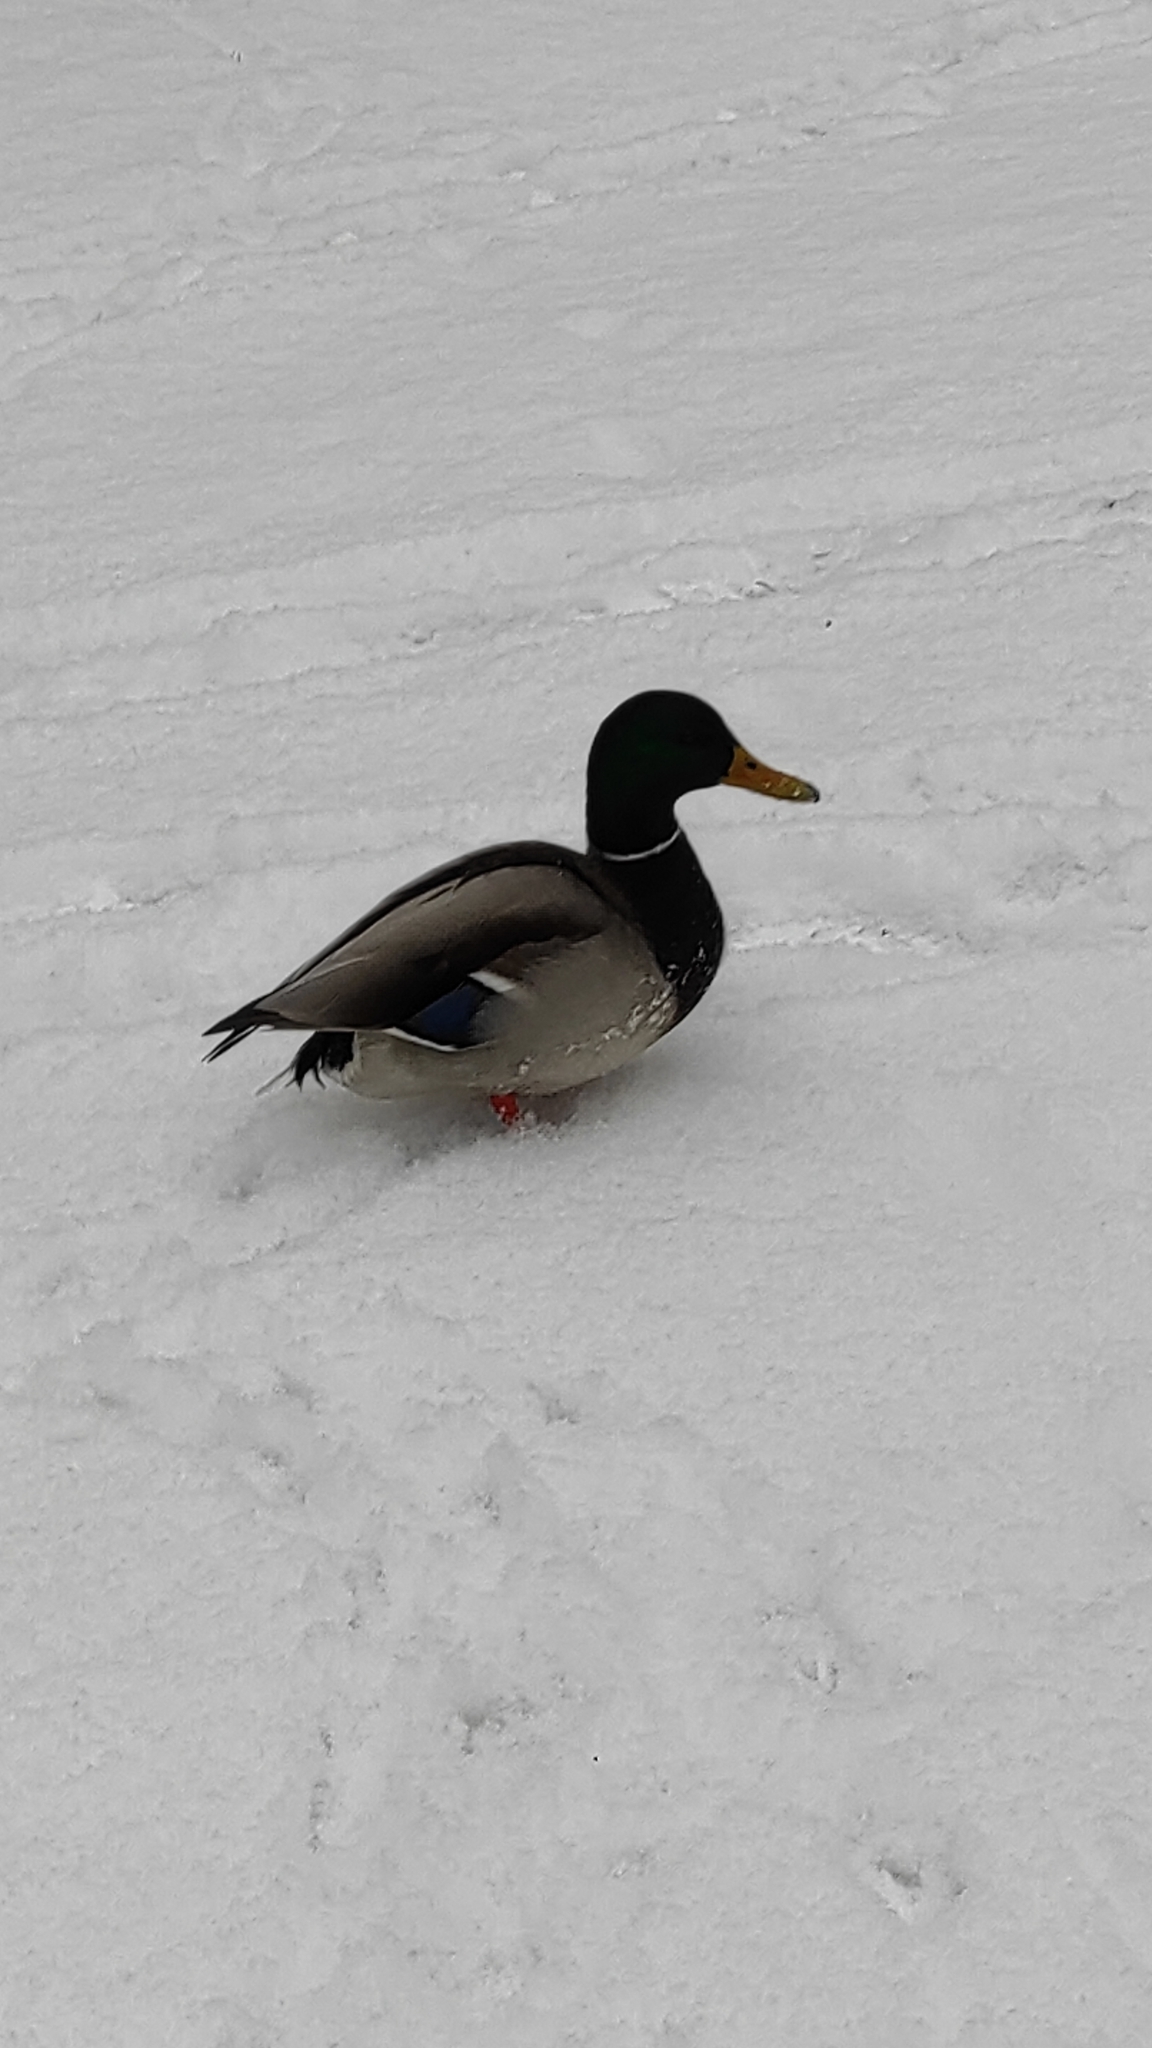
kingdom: Animalia
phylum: Chordata
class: Aves
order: Anseriformes
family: Anatidae
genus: Anas
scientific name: Anas platyrhynchos
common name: Mallard
